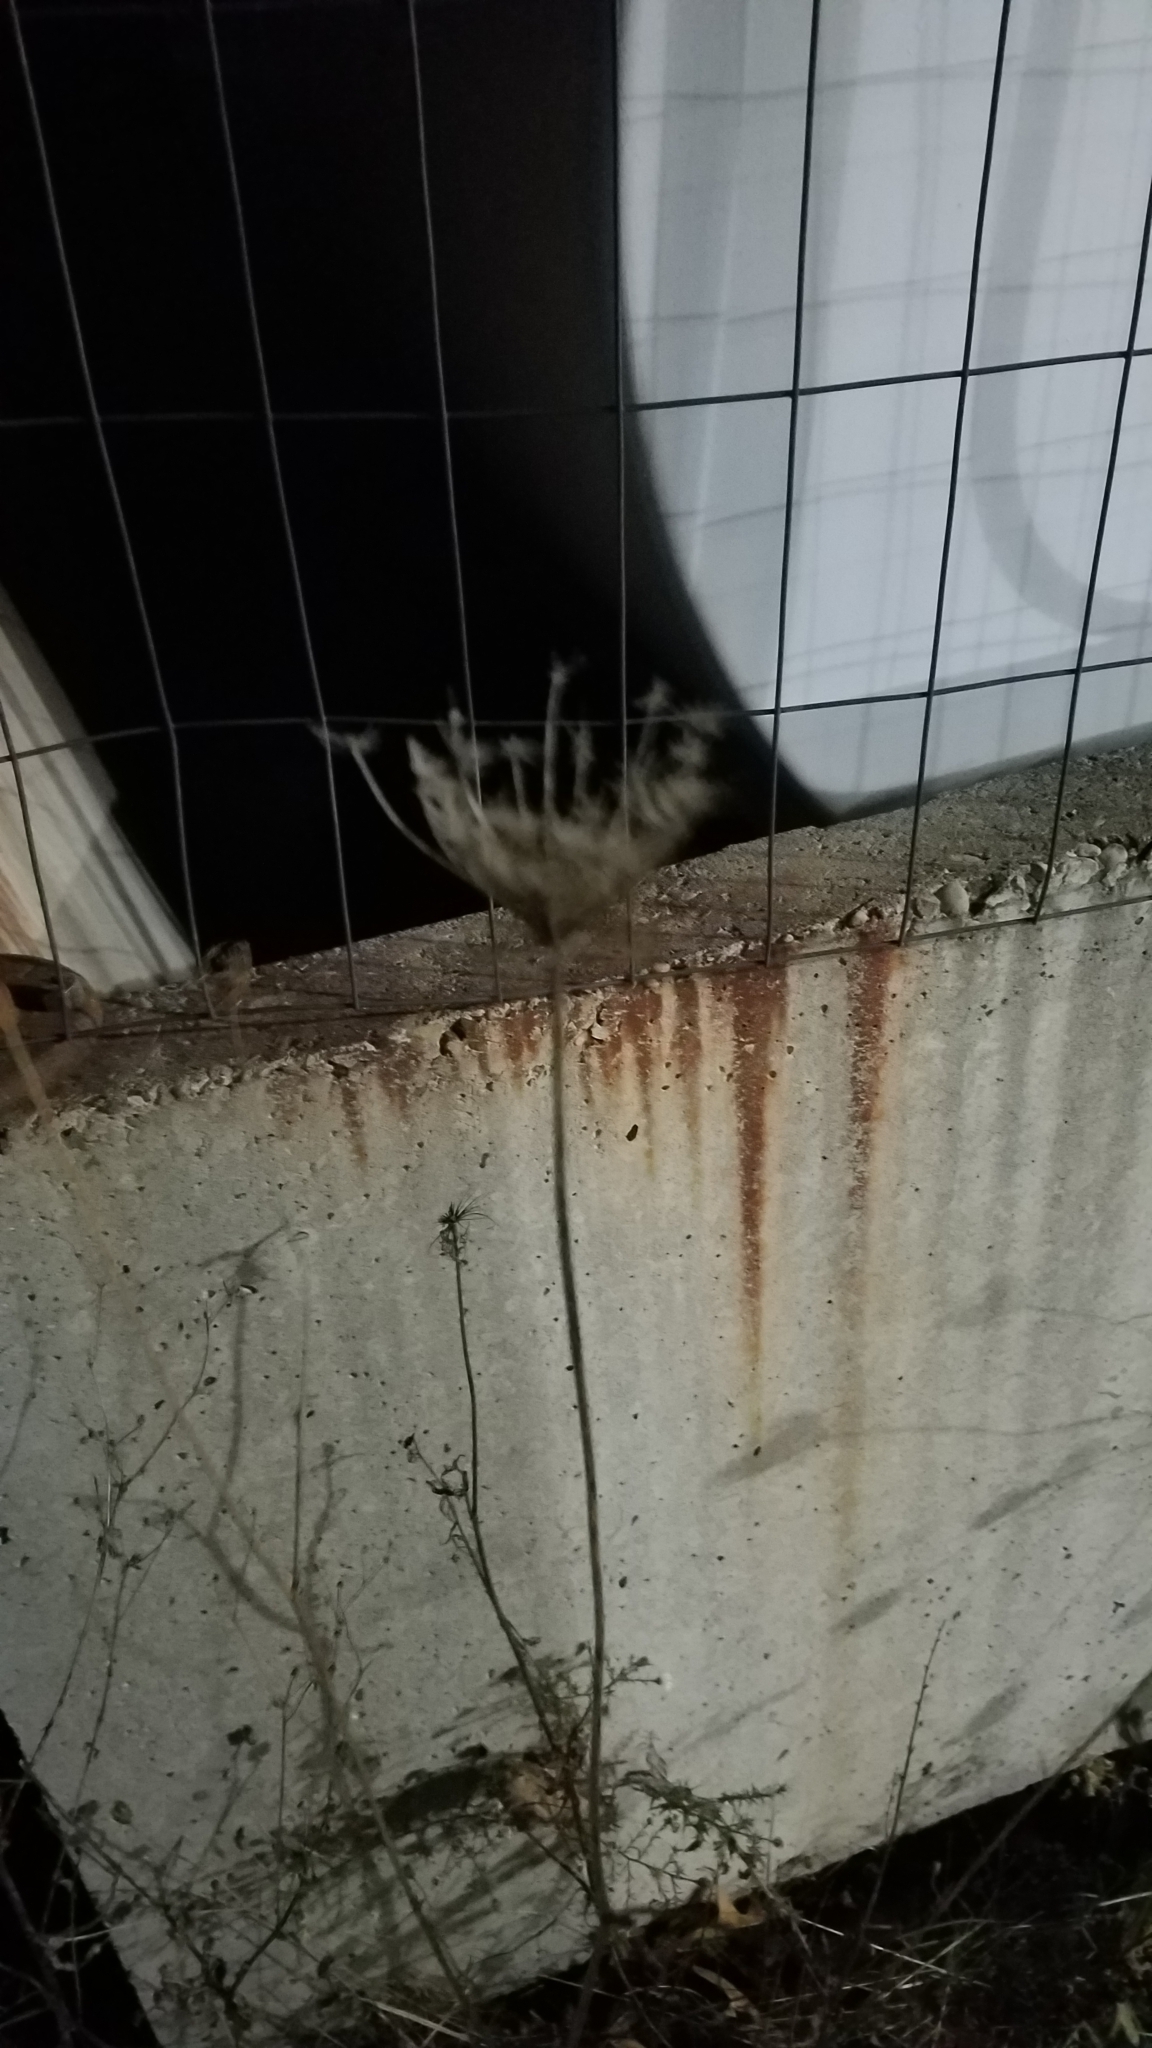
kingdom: Plantae
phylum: Tracheophyta
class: Magnoliopsida
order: Apiales
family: Apiaceae
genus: Daucus
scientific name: Daucus carota
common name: Wild carrot
